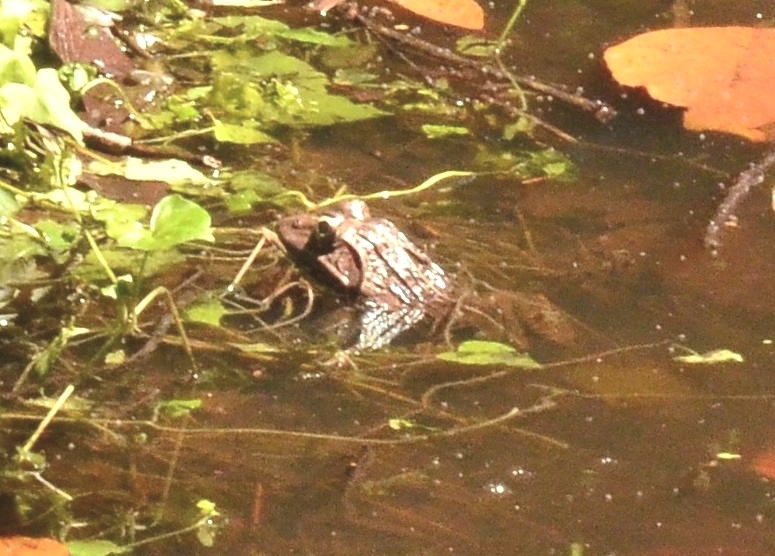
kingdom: Animalia
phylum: Chordata
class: Amphibia
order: Anura
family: Dicroglossidae
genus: Hoplobatrachus
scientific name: Hoplobatrachus tigerinus
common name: Indian bullfrog
